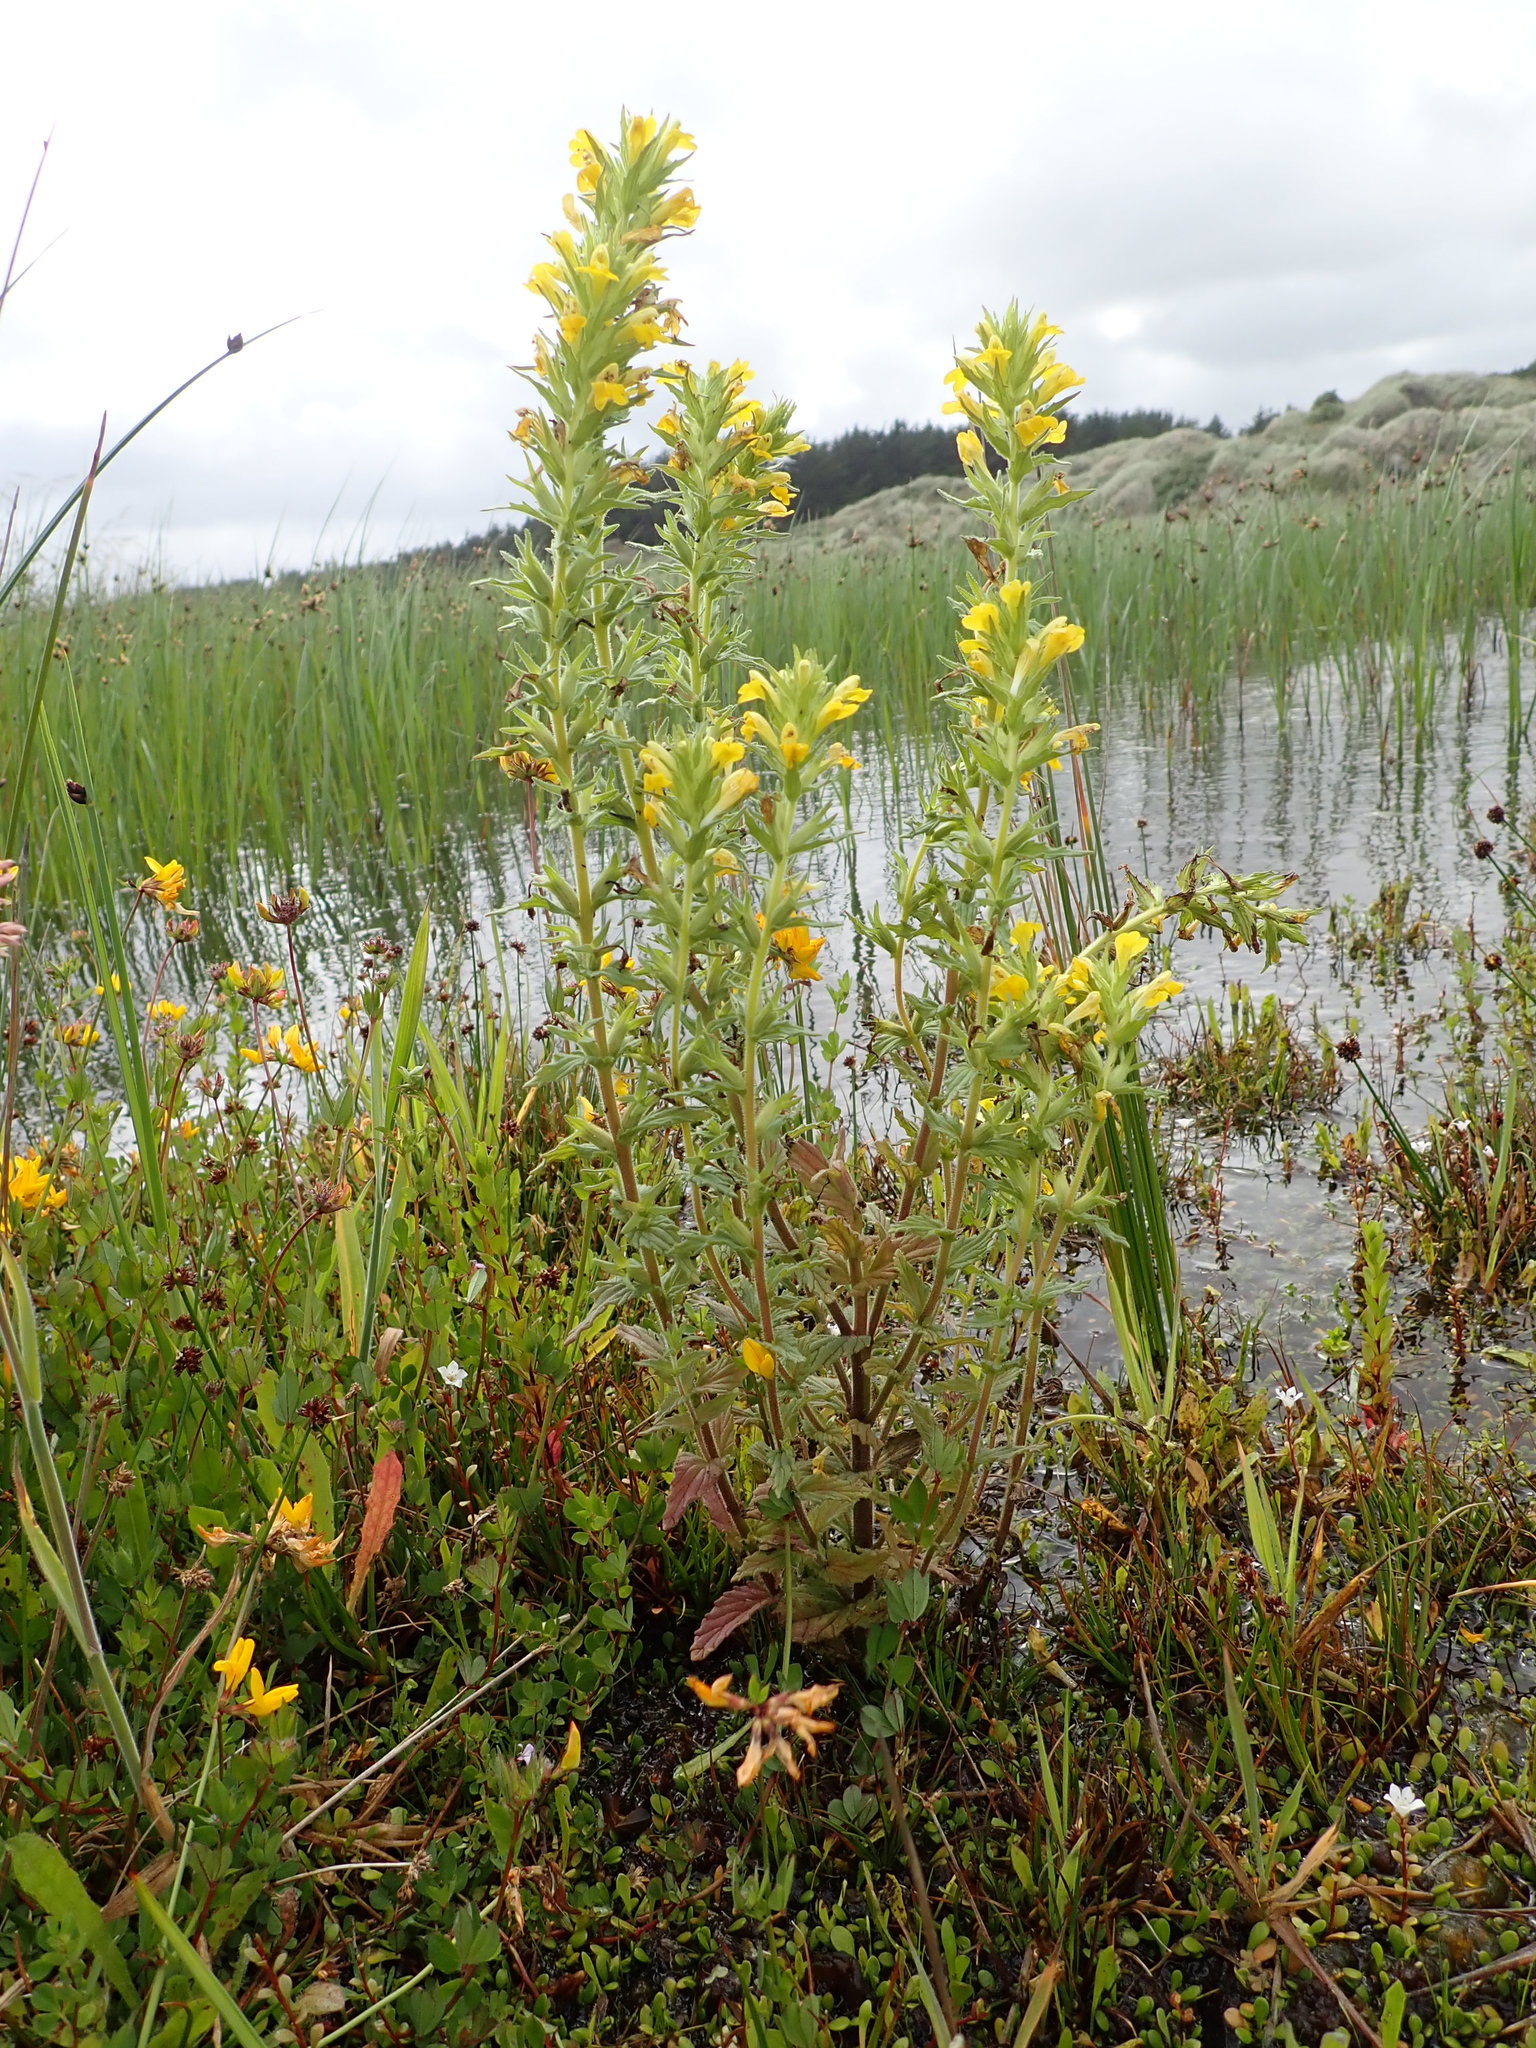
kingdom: Plantae
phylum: Tracheophyta
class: Magnoliopsida
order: Lamiales
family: Orobanchaceae
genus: Bellardia
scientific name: Bellardia viscosa
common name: Sticky parentucellia
